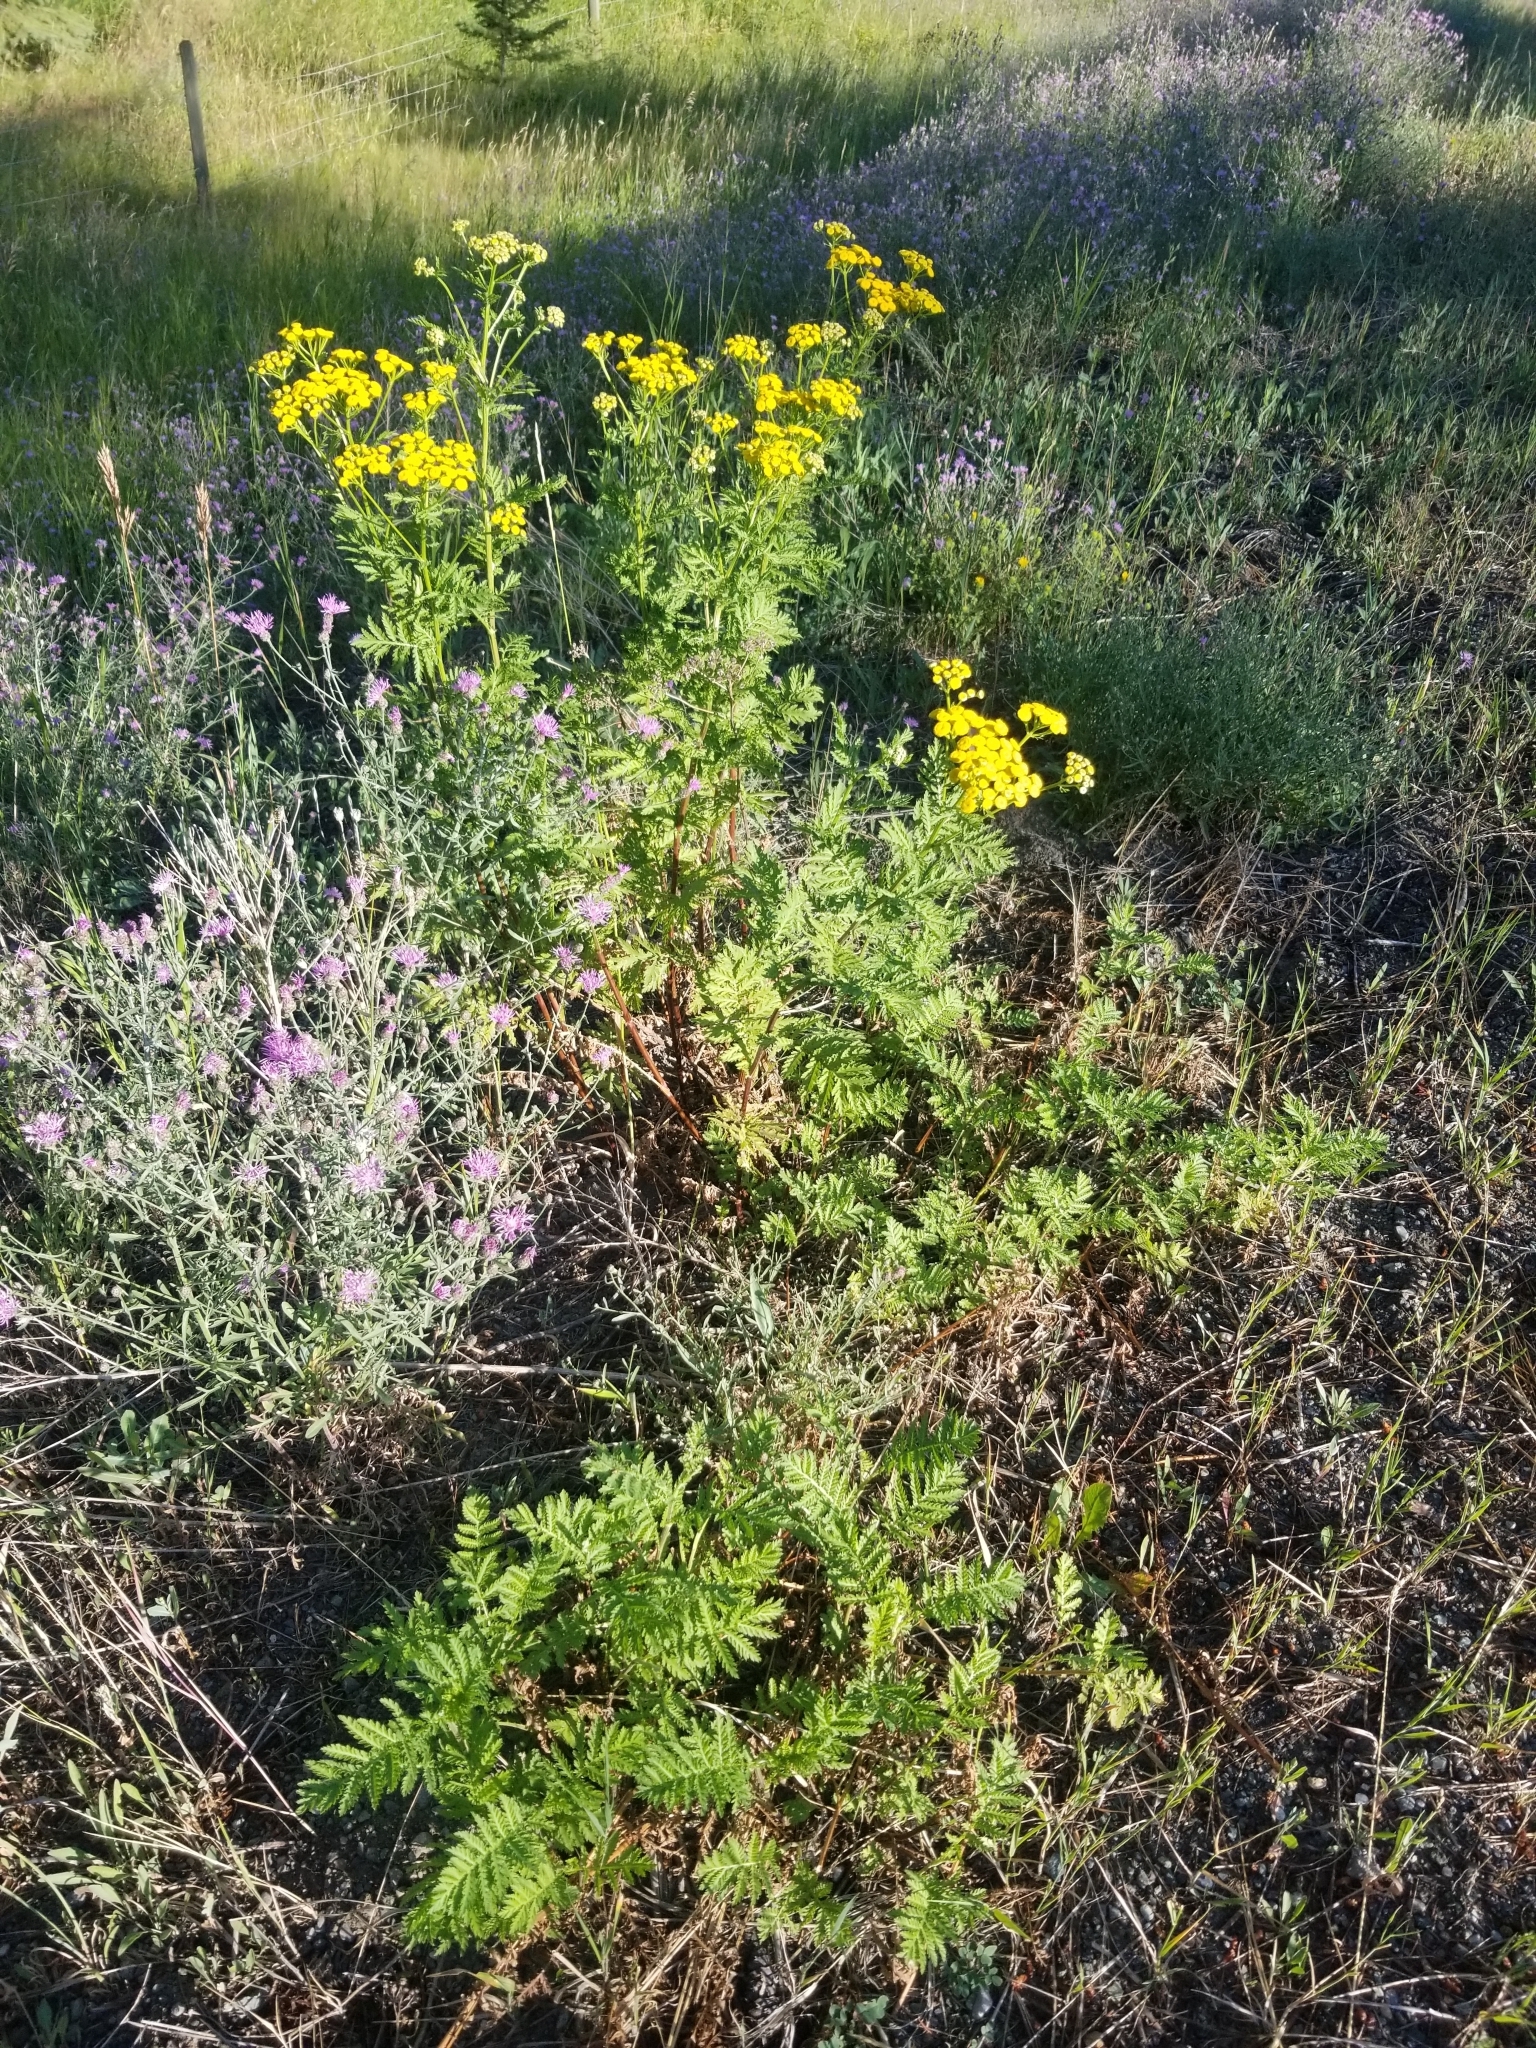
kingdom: Plantae
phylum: Tracheophyta
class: Magnoliopsida
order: Asterales
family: Asteraceae
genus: Tanacetum
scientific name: Tanacetum vulgare
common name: Common tansy
